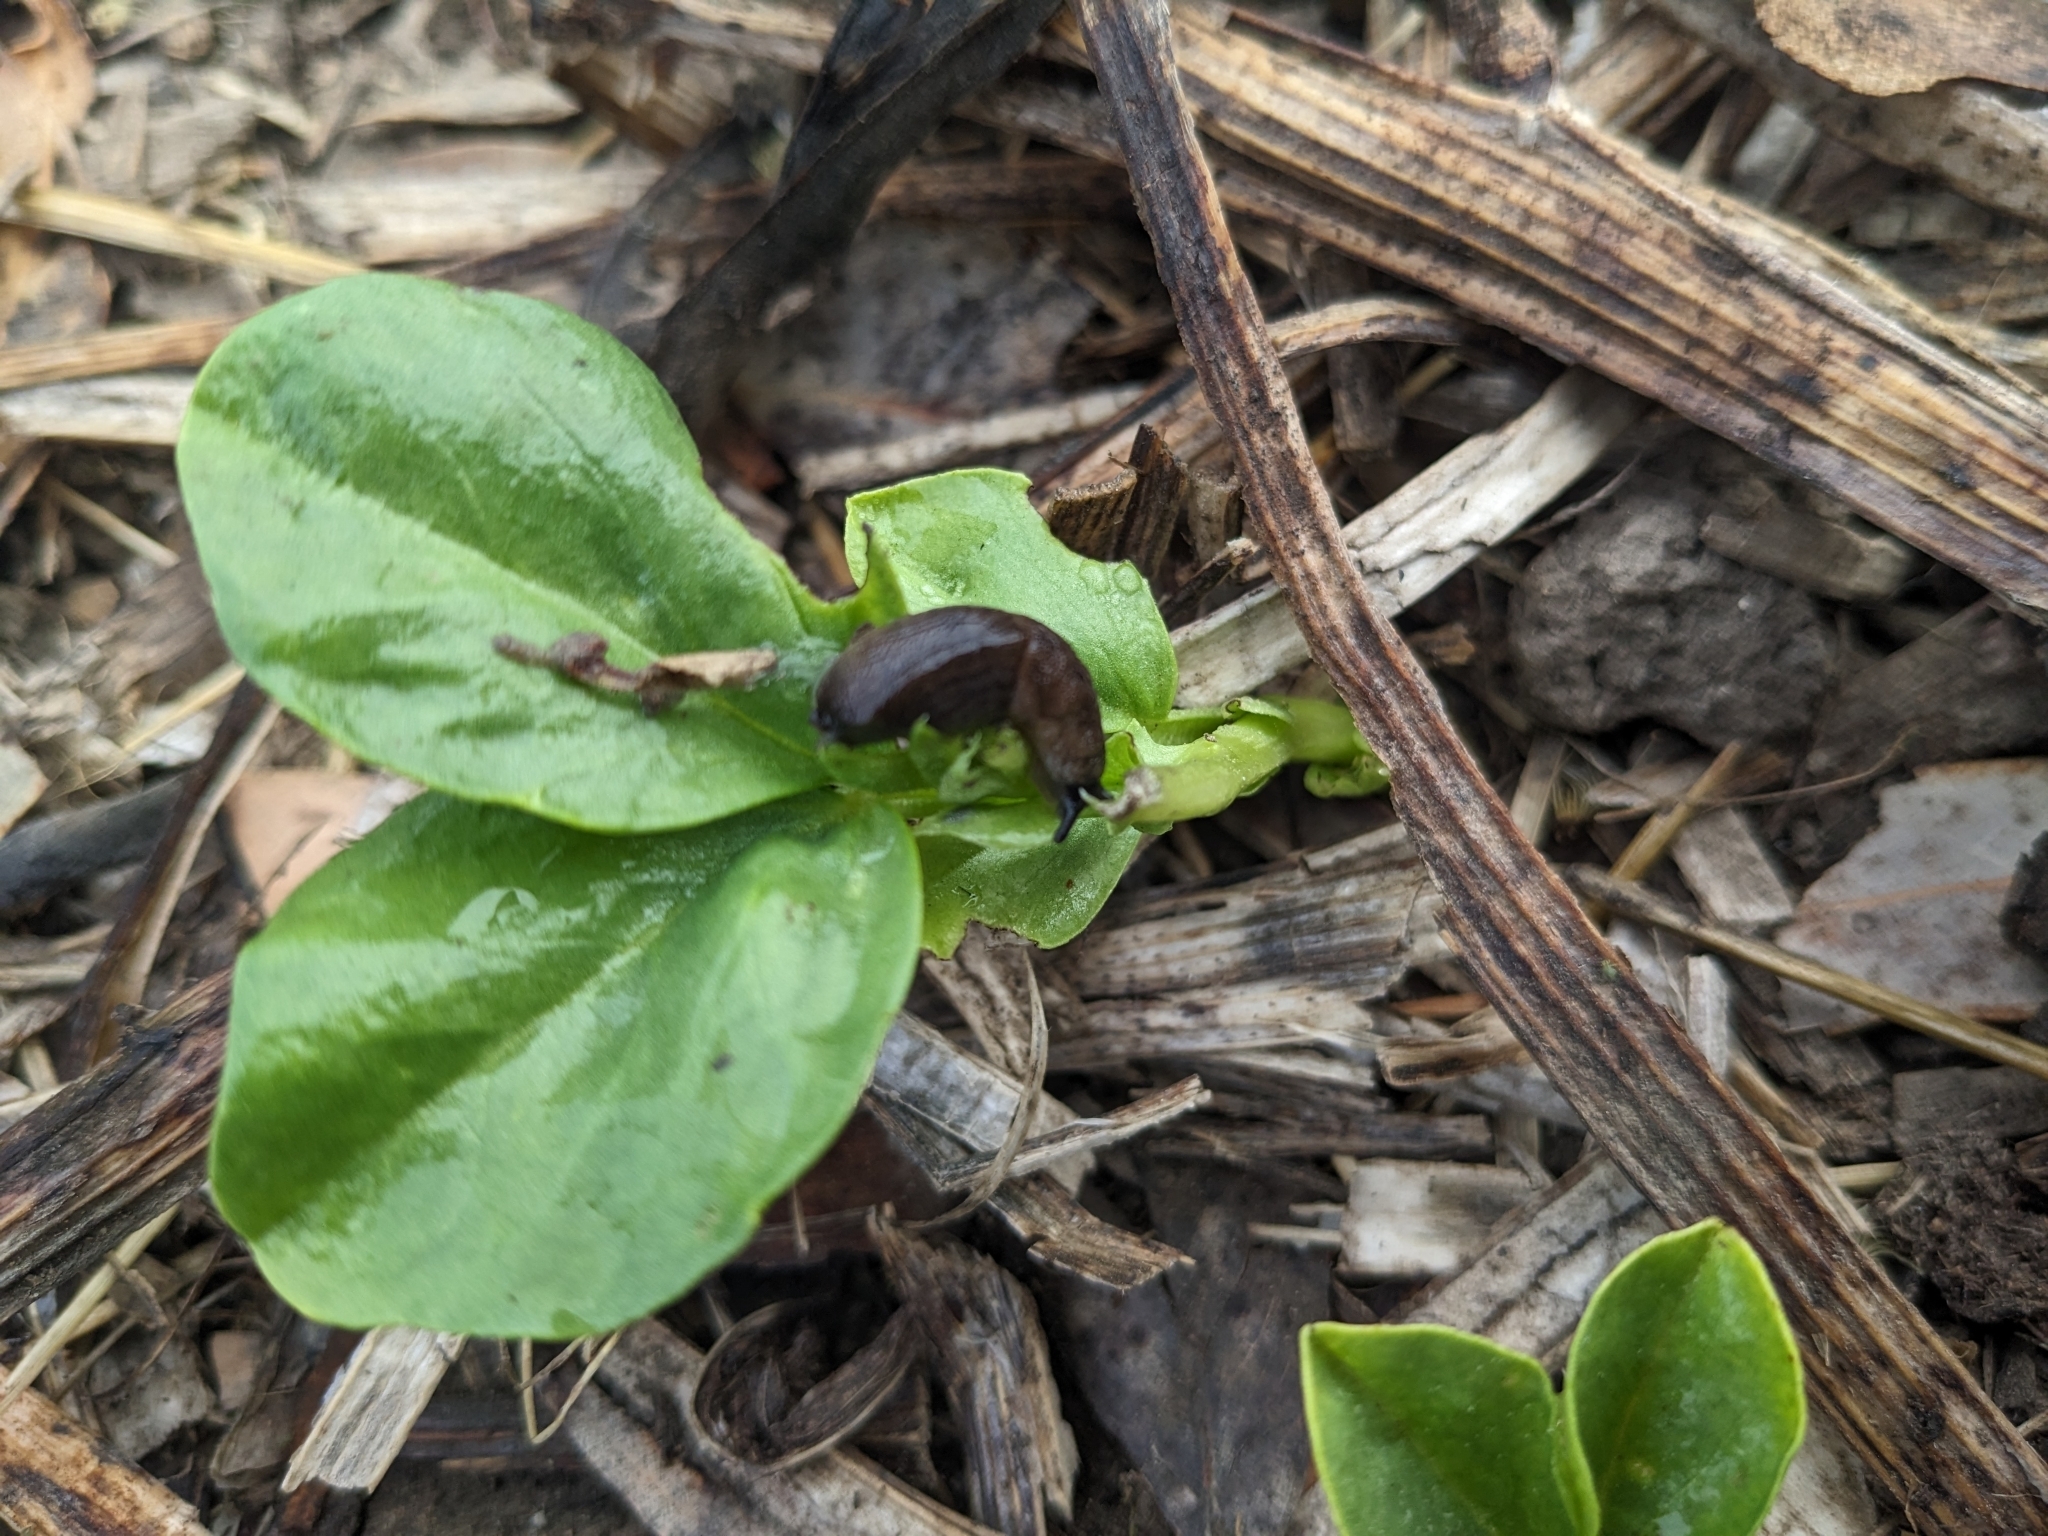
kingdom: Animalia
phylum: Mollusca
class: Gastropoda
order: Stylommatophora
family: Milacidae
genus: Milax
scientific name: Milax gagates
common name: Greenhouse slug
